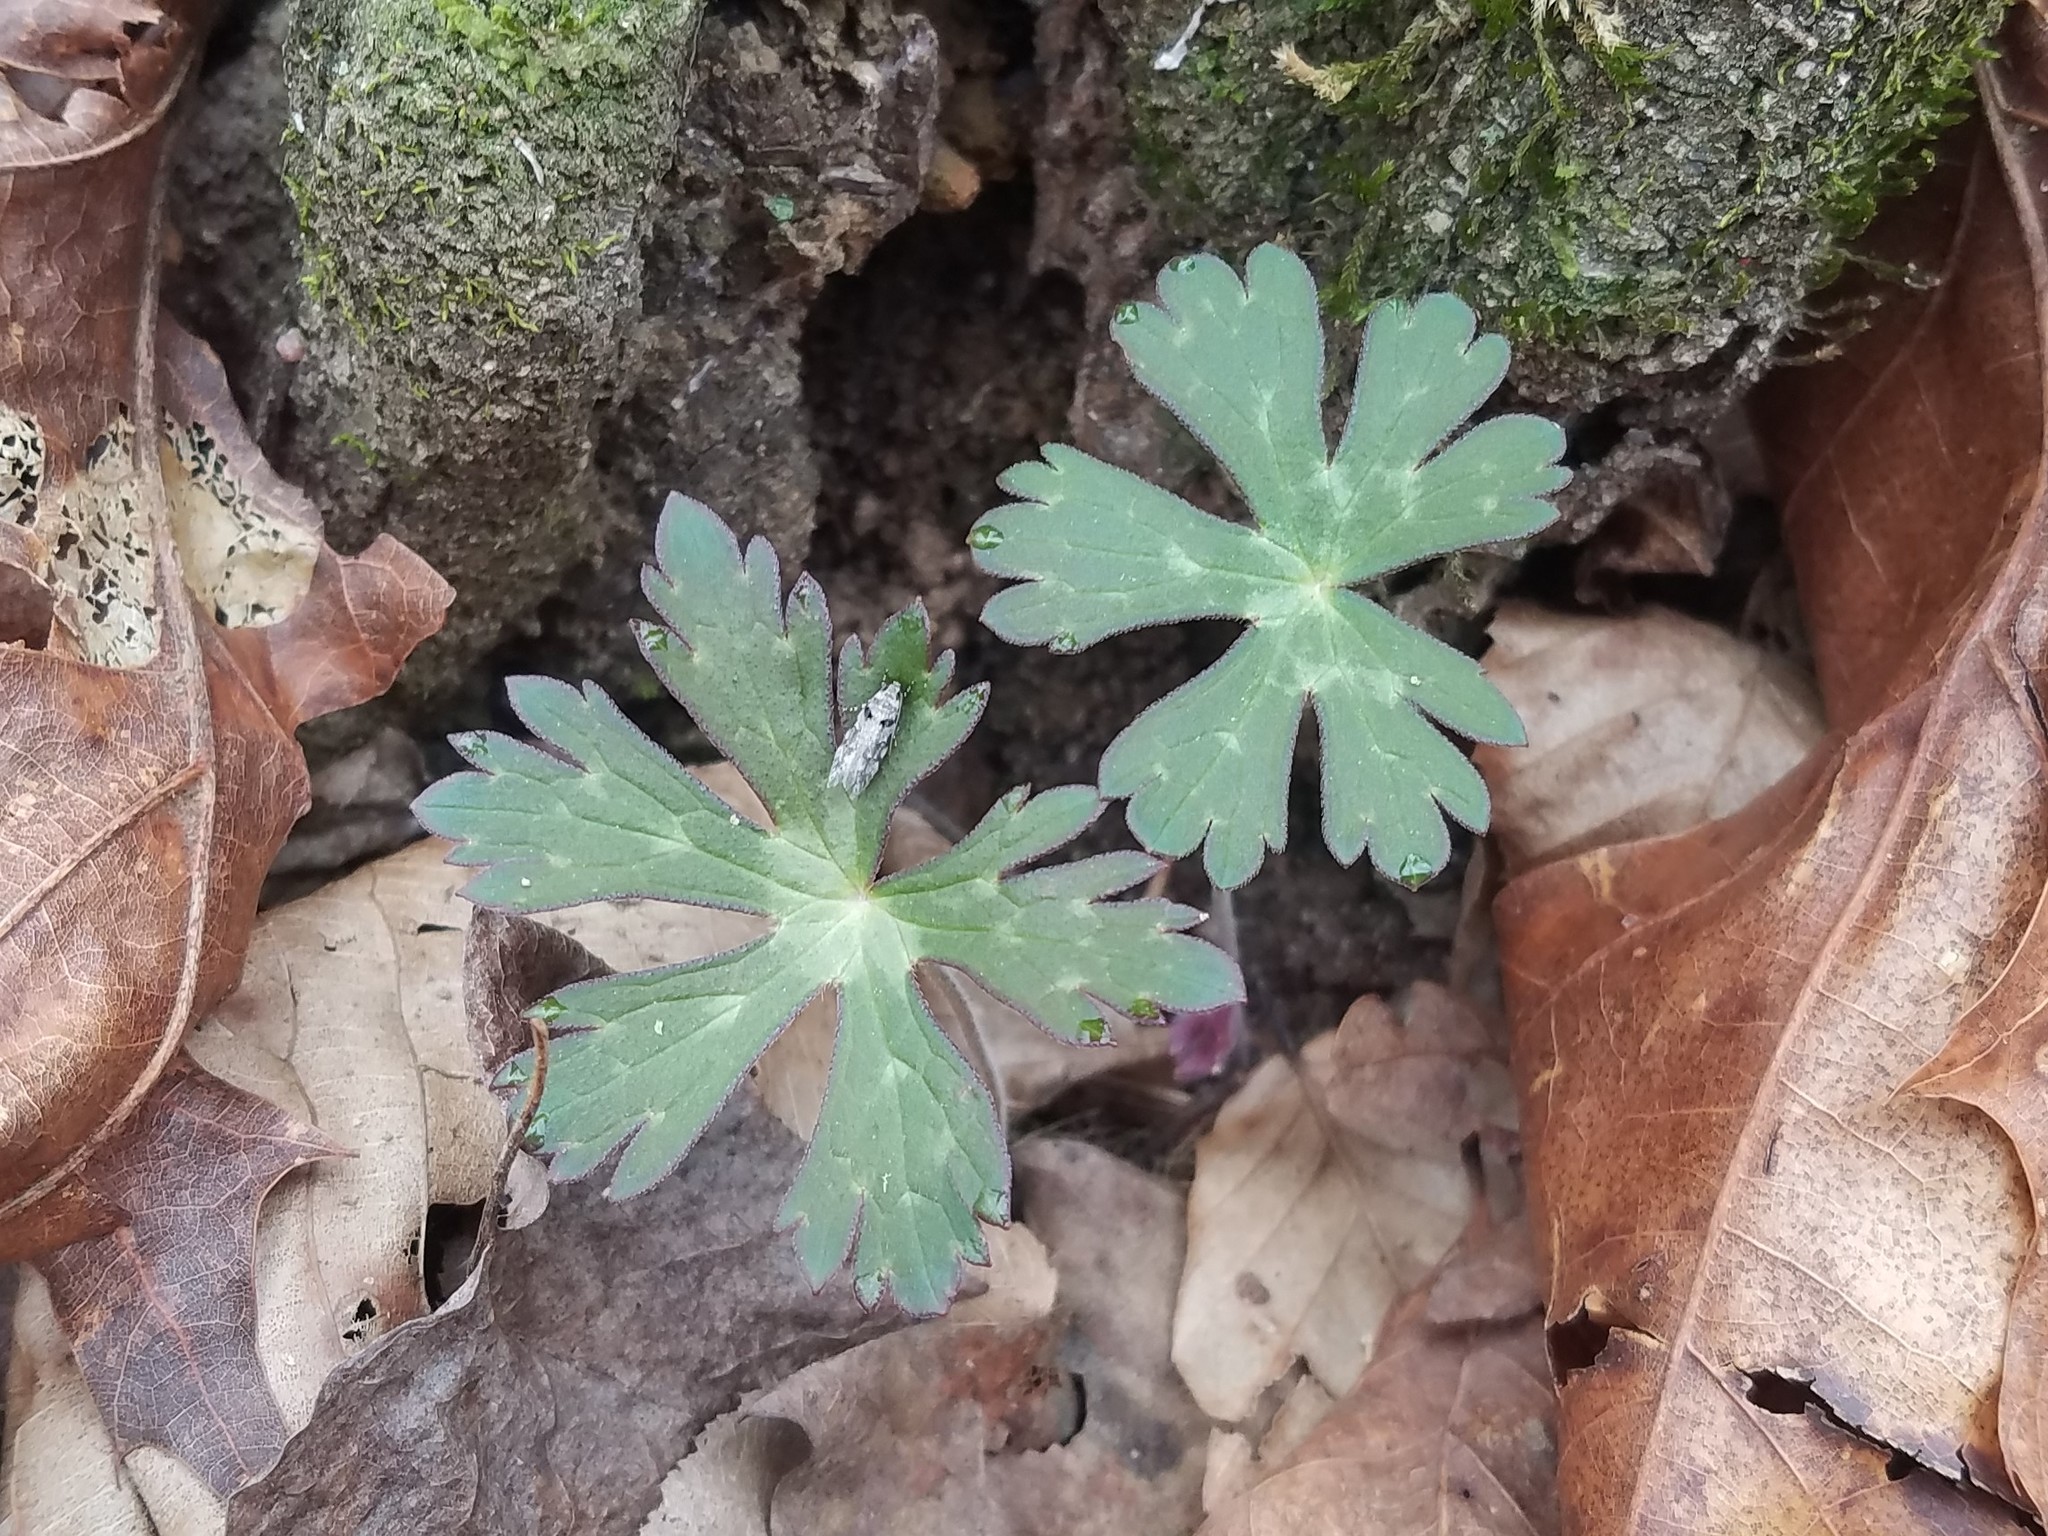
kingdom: Plantae
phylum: Tracheophyta
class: Magnoliopsida
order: Geraniales
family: Geraniaceae
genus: Geranium
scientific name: Geranium maculatum
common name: Spotted geranium
